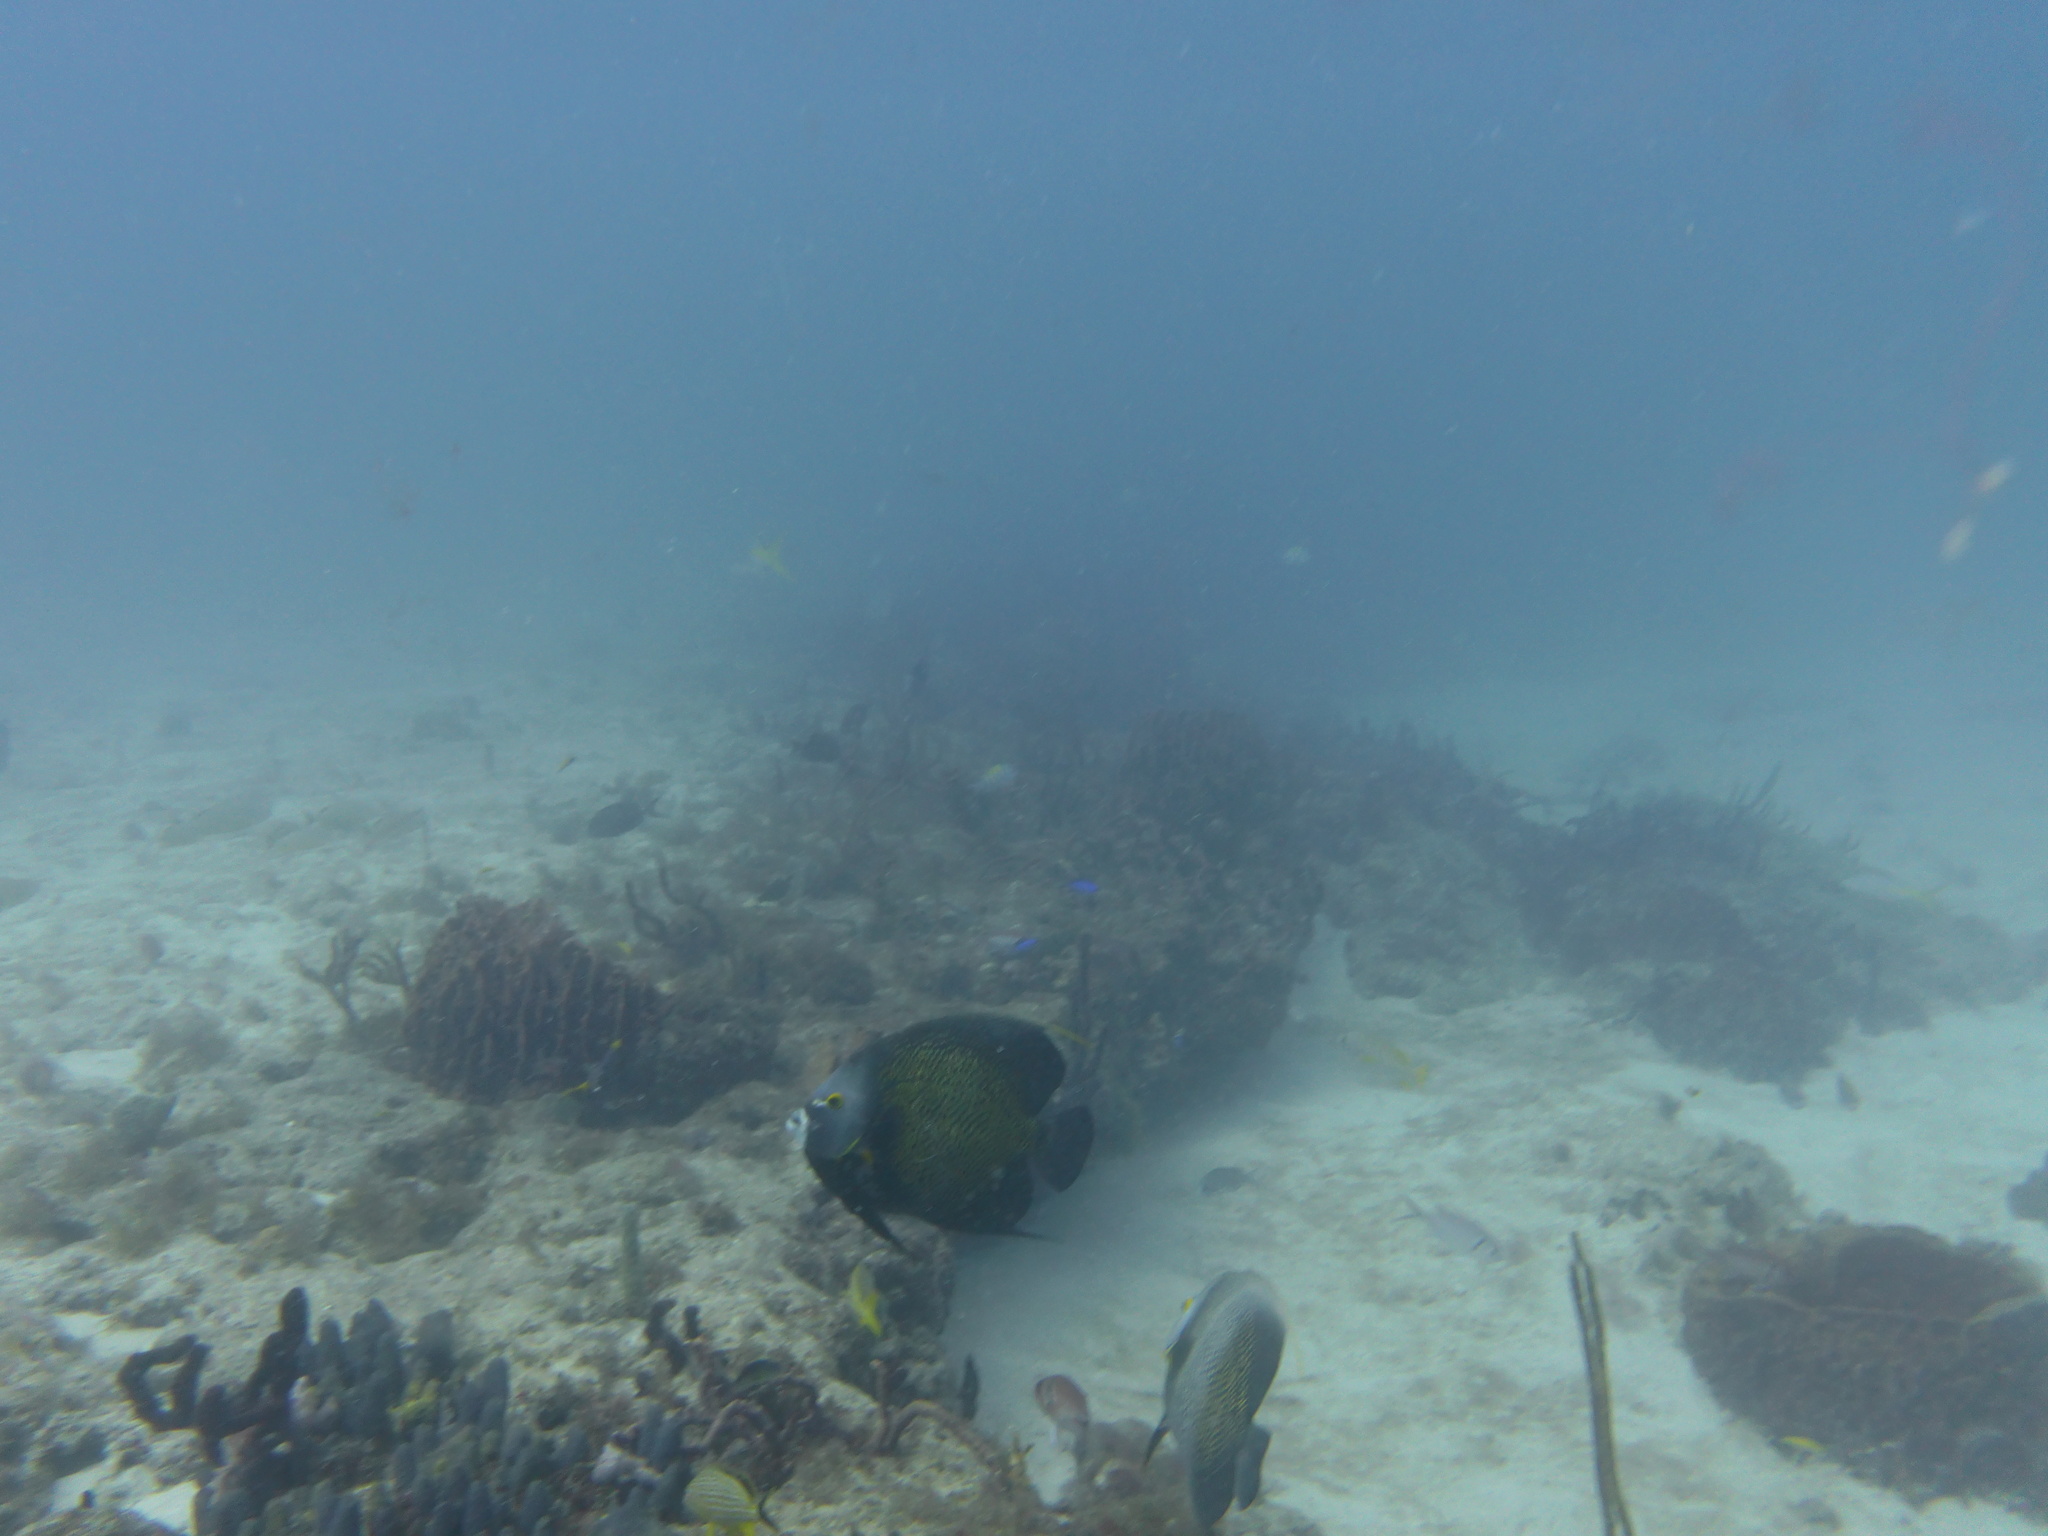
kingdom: Animalia
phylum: Chordata
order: Perciformes
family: Pomacanthidae
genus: Pomacanthus
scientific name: Pomacanthus paru
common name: French angelfish
